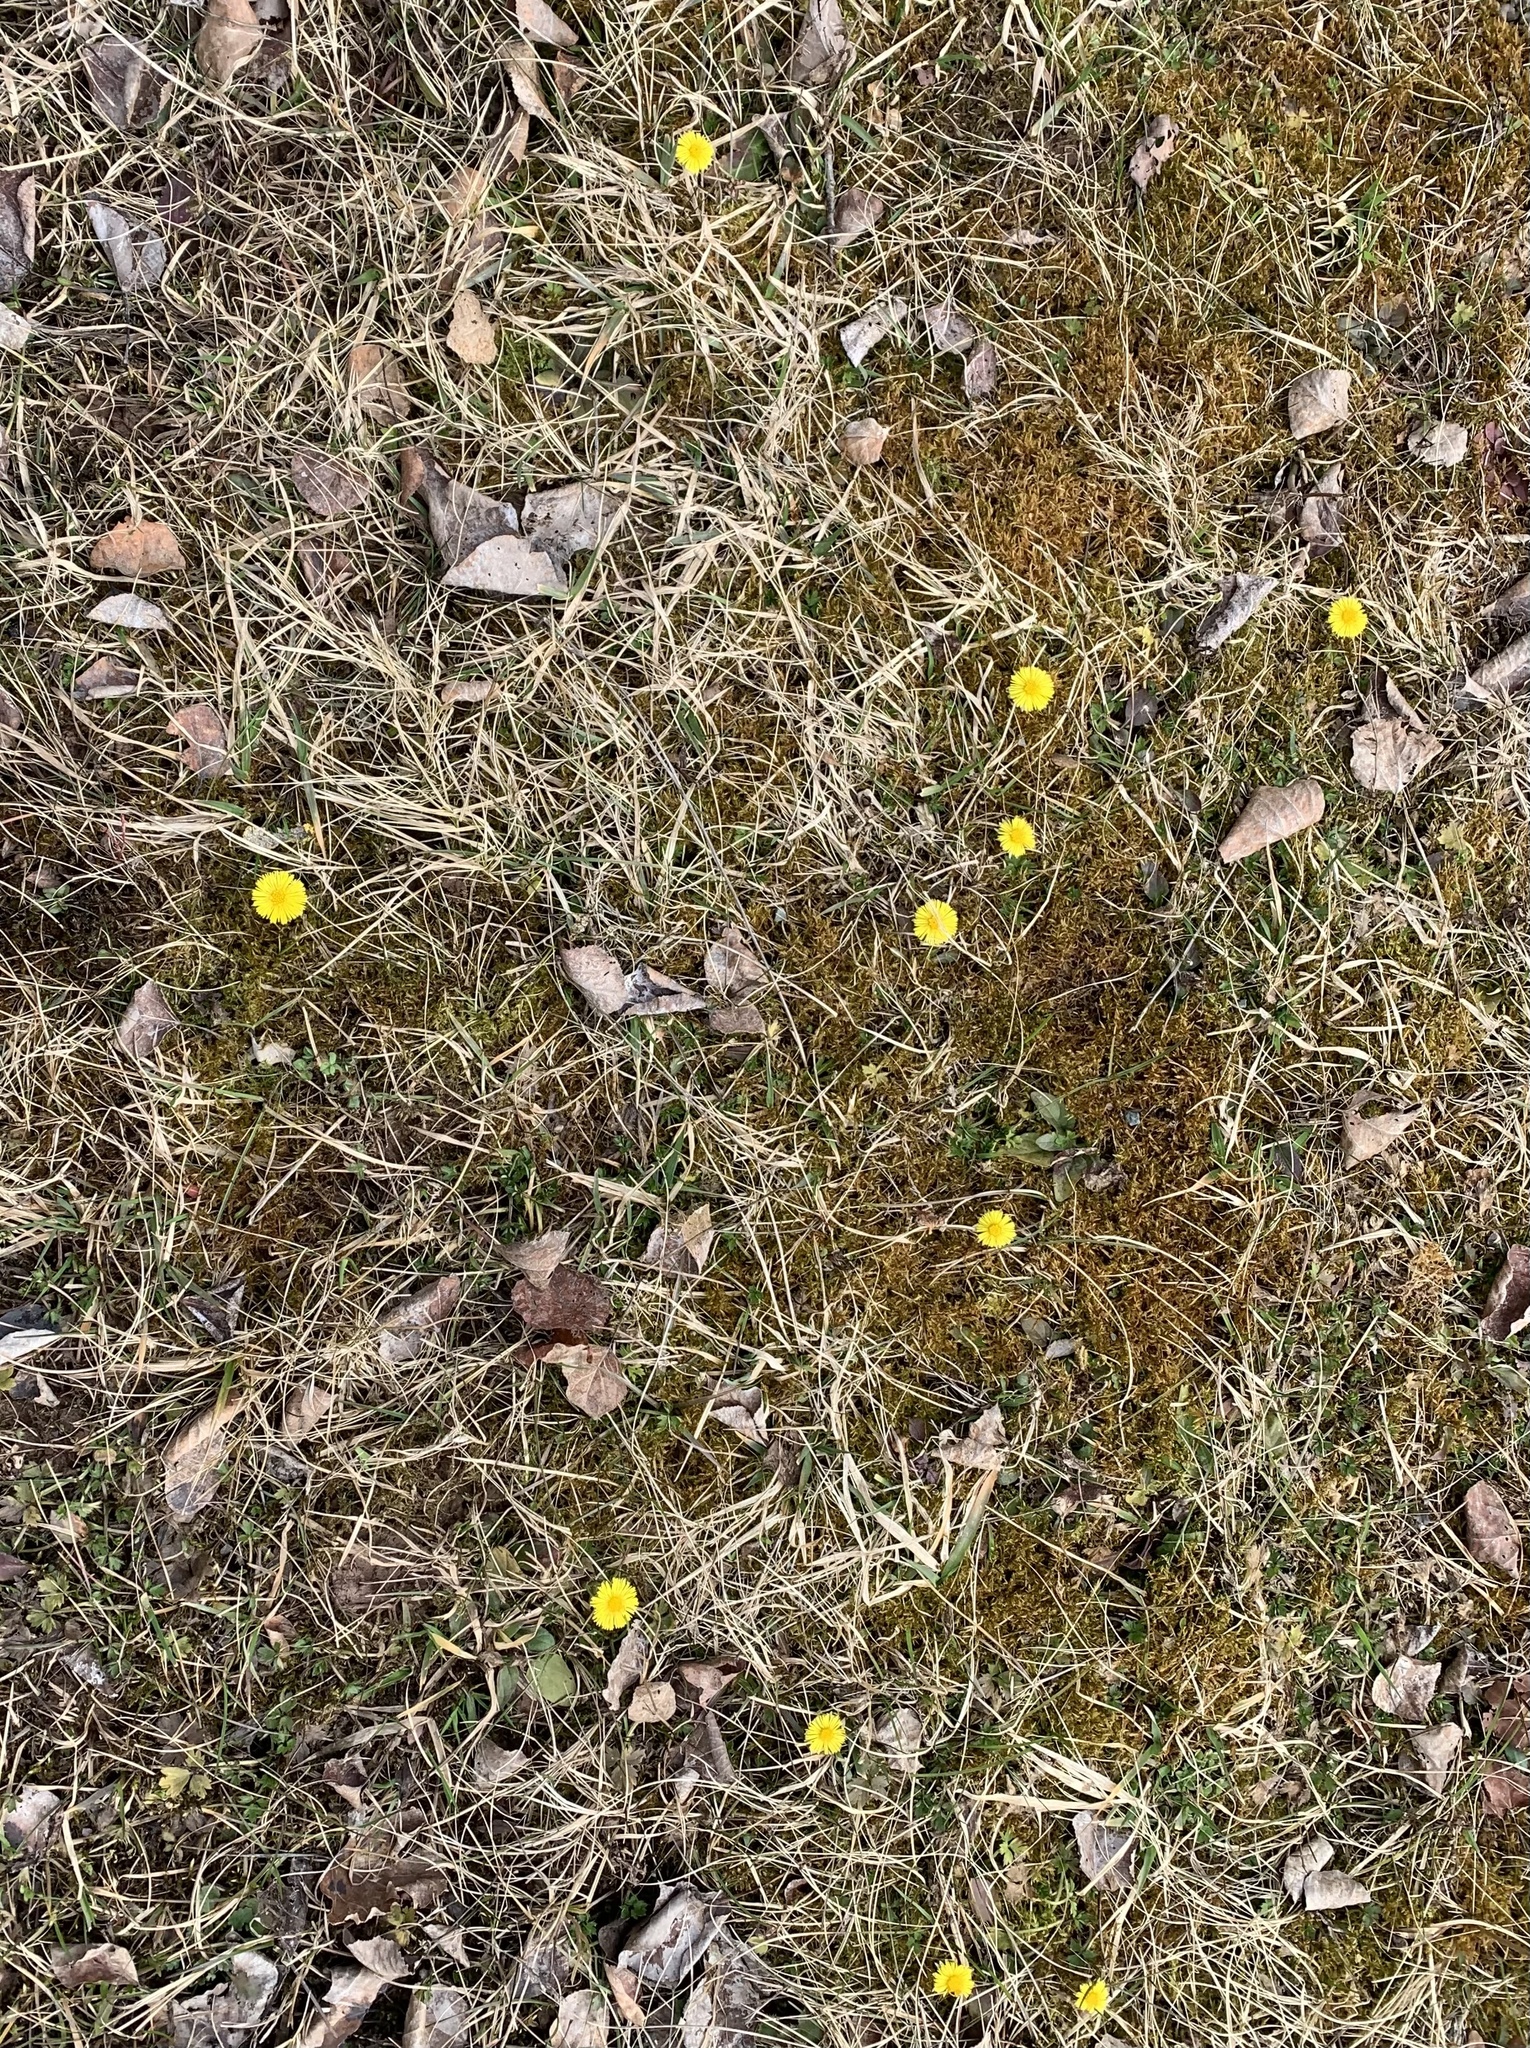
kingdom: Plantae
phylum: Tracheophyta
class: Magnoliopsida
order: Asterales
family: Asteraceae
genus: Tussilago
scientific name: Tussilago farfara
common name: Coltsfoot
